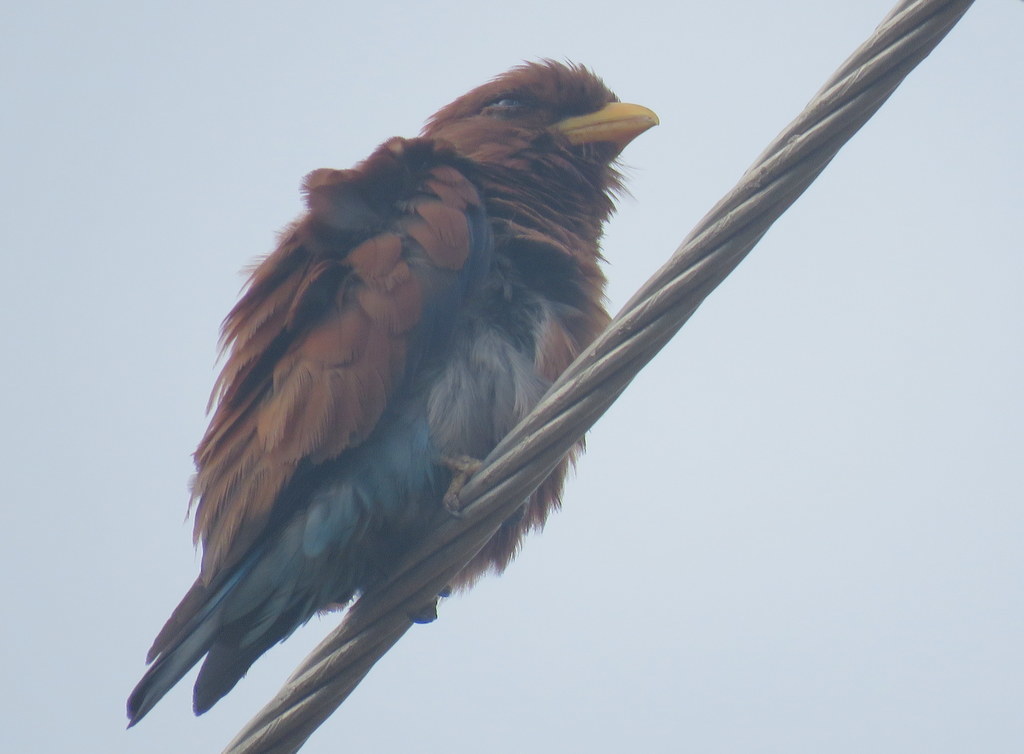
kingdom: Animalia
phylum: Chordata
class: Aves
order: Coraciiformes
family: Coraciidae
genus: Eurystomus
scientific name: Eurystomus glaucurus
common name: Broad-billed roller
